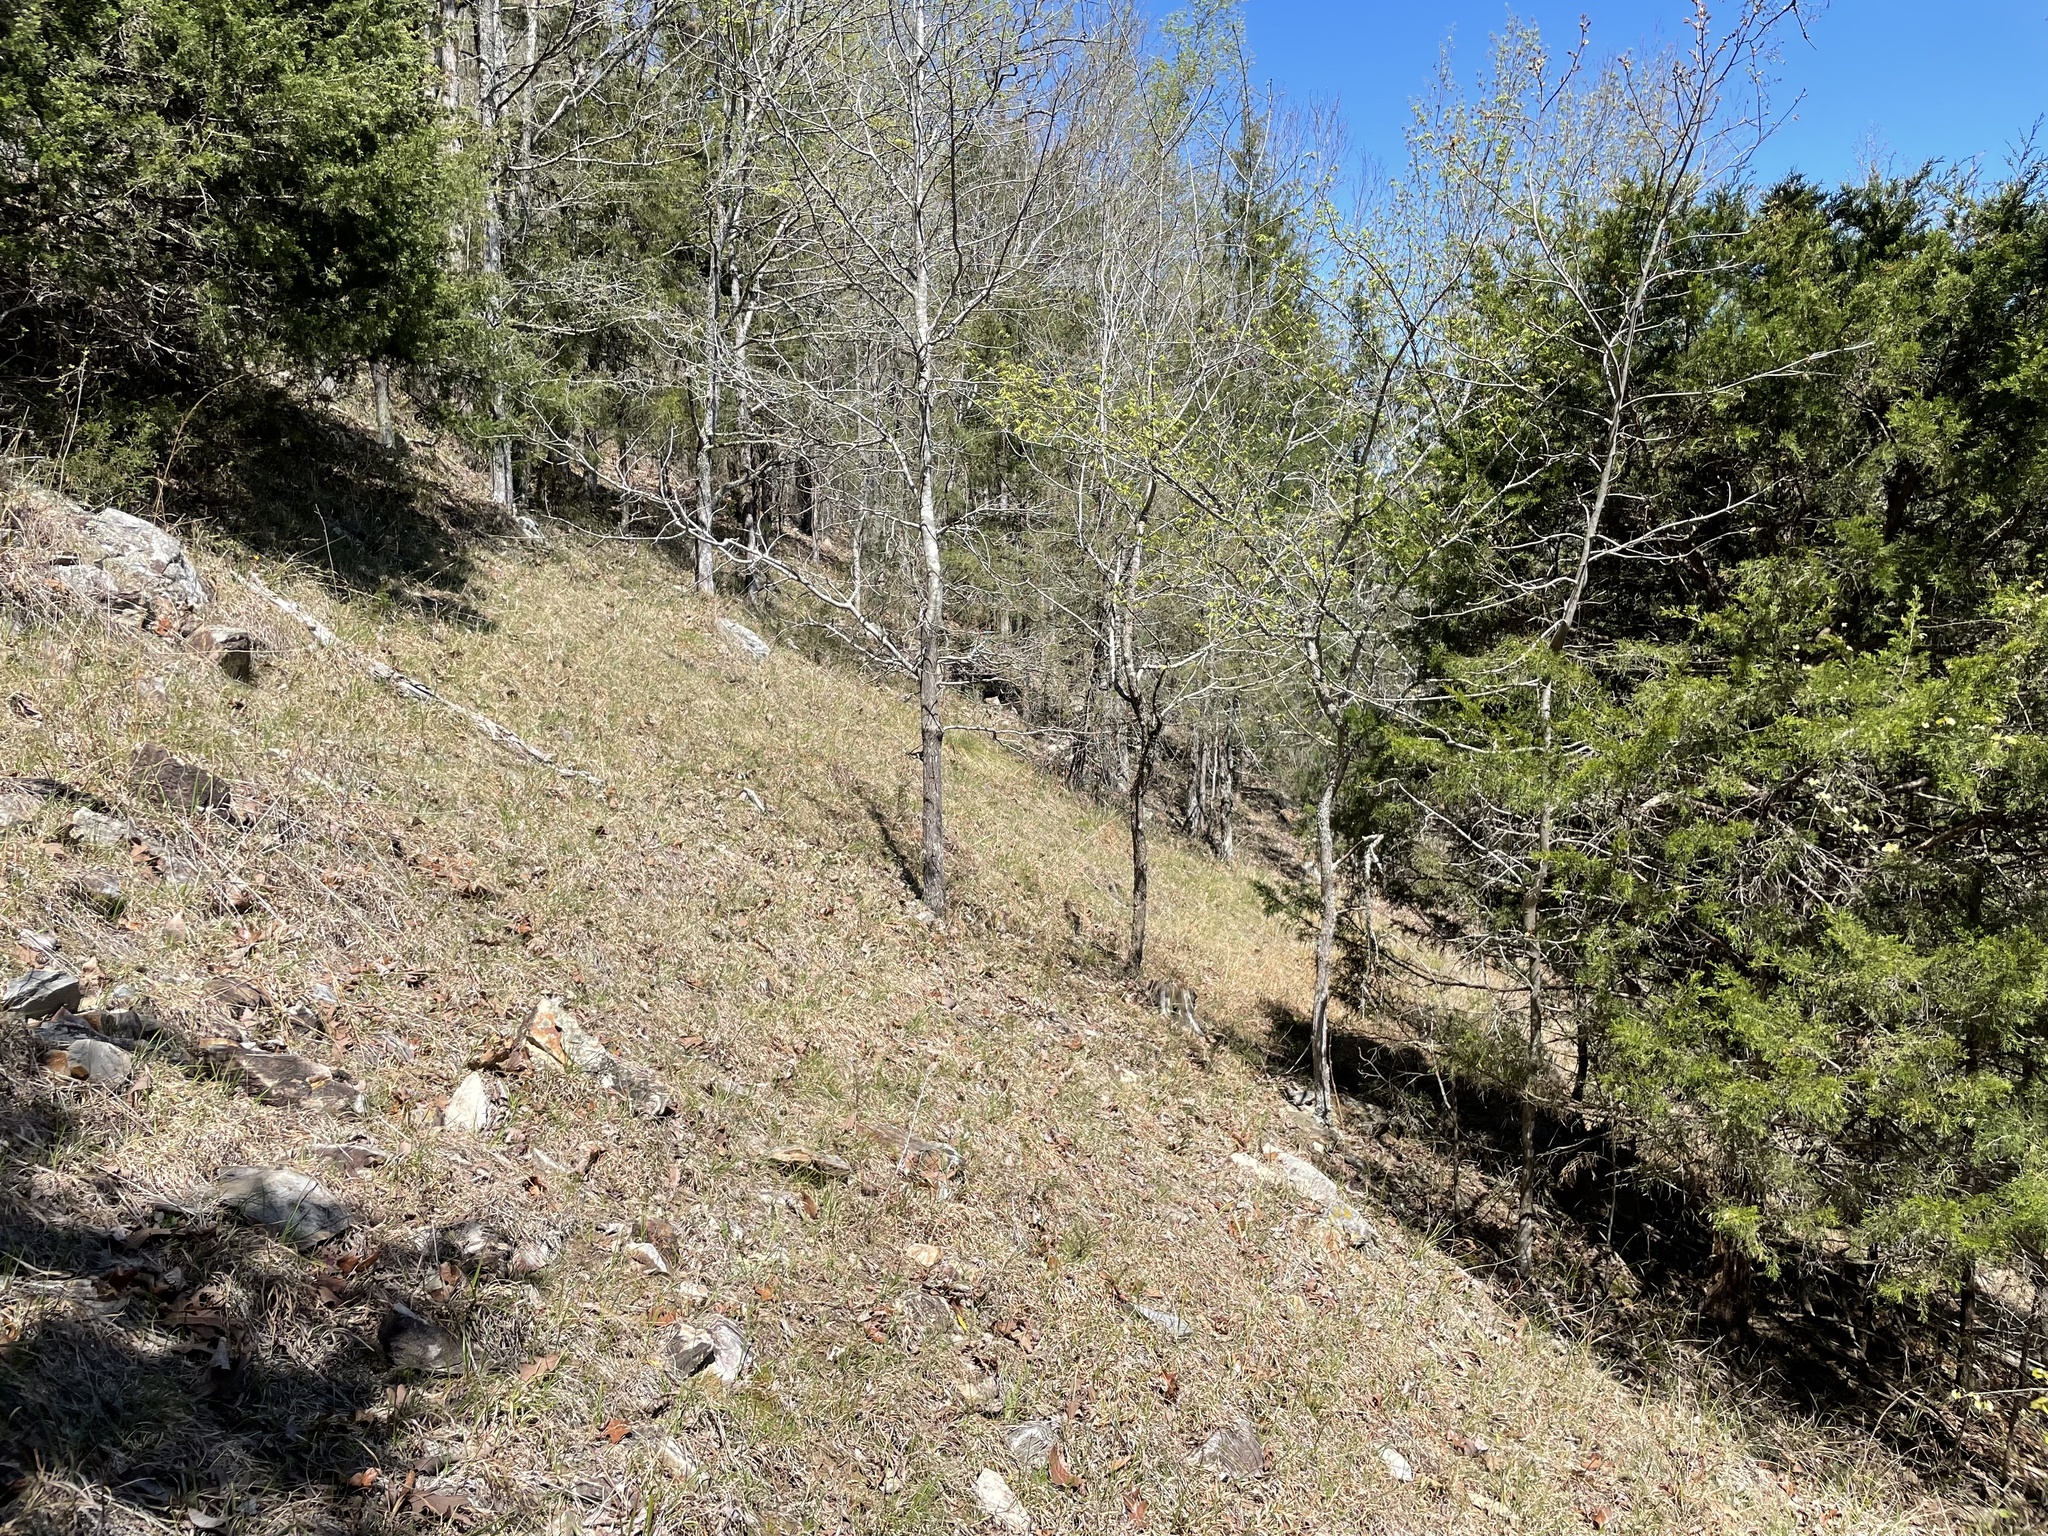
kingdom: Plantae
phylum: Tracheophyta
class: Liliopsida
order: Poales
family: Poaceae
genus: Schizachyrium
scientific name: Schizachyrium scoparium
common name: Little bluestem
